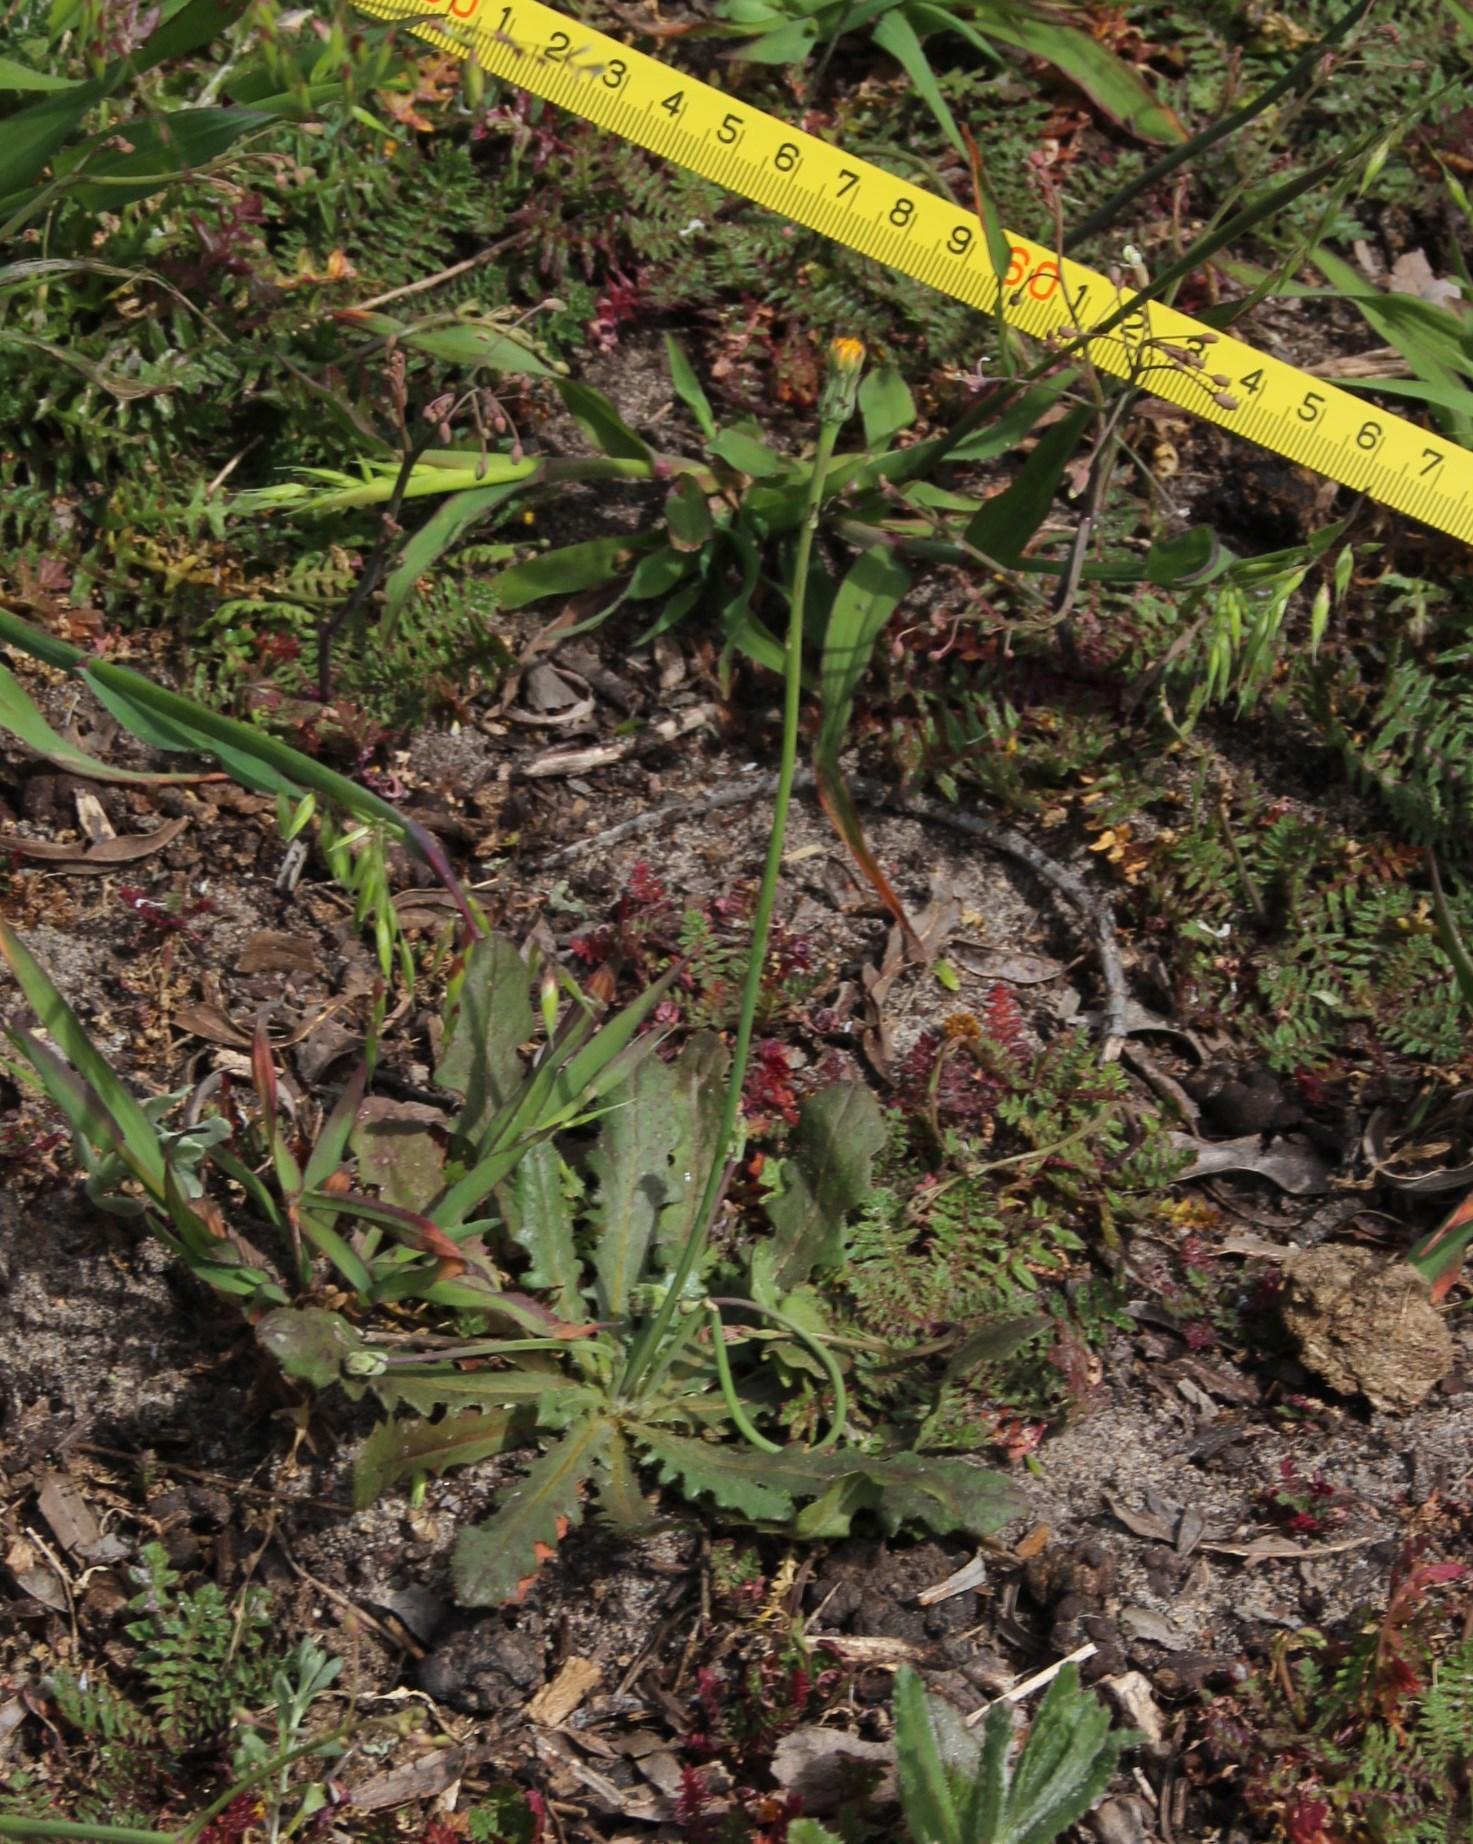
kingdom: Plantae
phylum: Tracheophyta
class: Magnoliopsida
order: Asterales
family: Asteraceae
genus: Hypochaeris
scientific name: Hypochaeris radicata
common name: Flatweed
